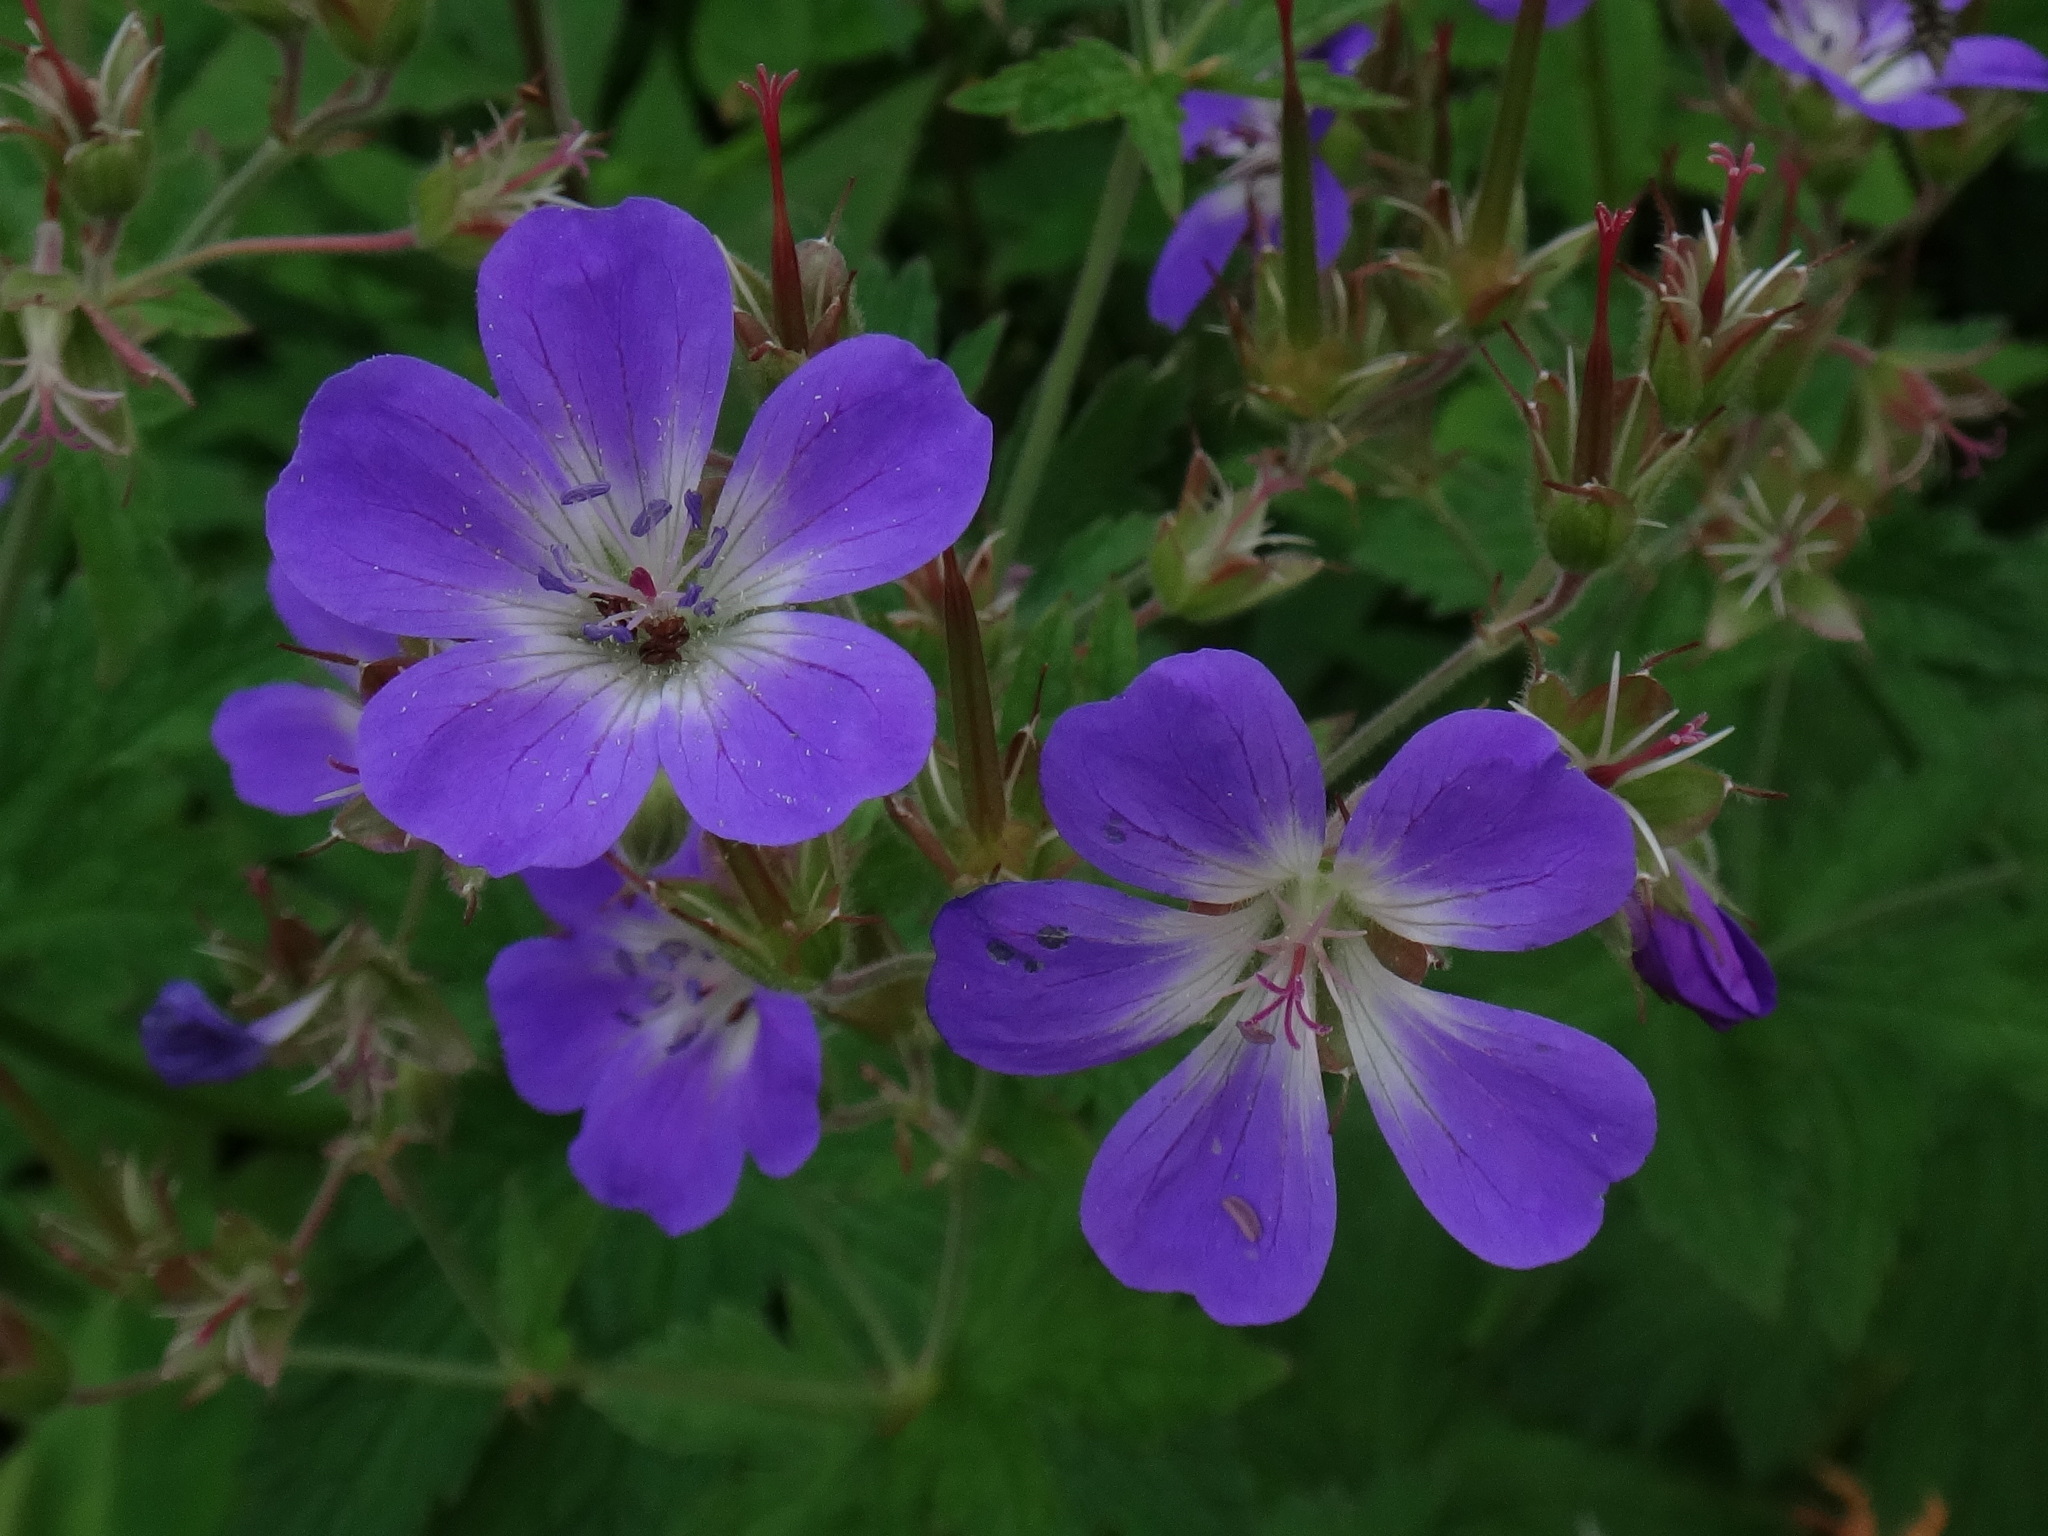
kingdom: Plantae
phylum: Tracheophyta
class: Magnoliopsida
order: Geraniales
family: Geraniaceae
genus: Geranium
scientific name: Geranium sylvaticum
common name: Wood crane's-bill
